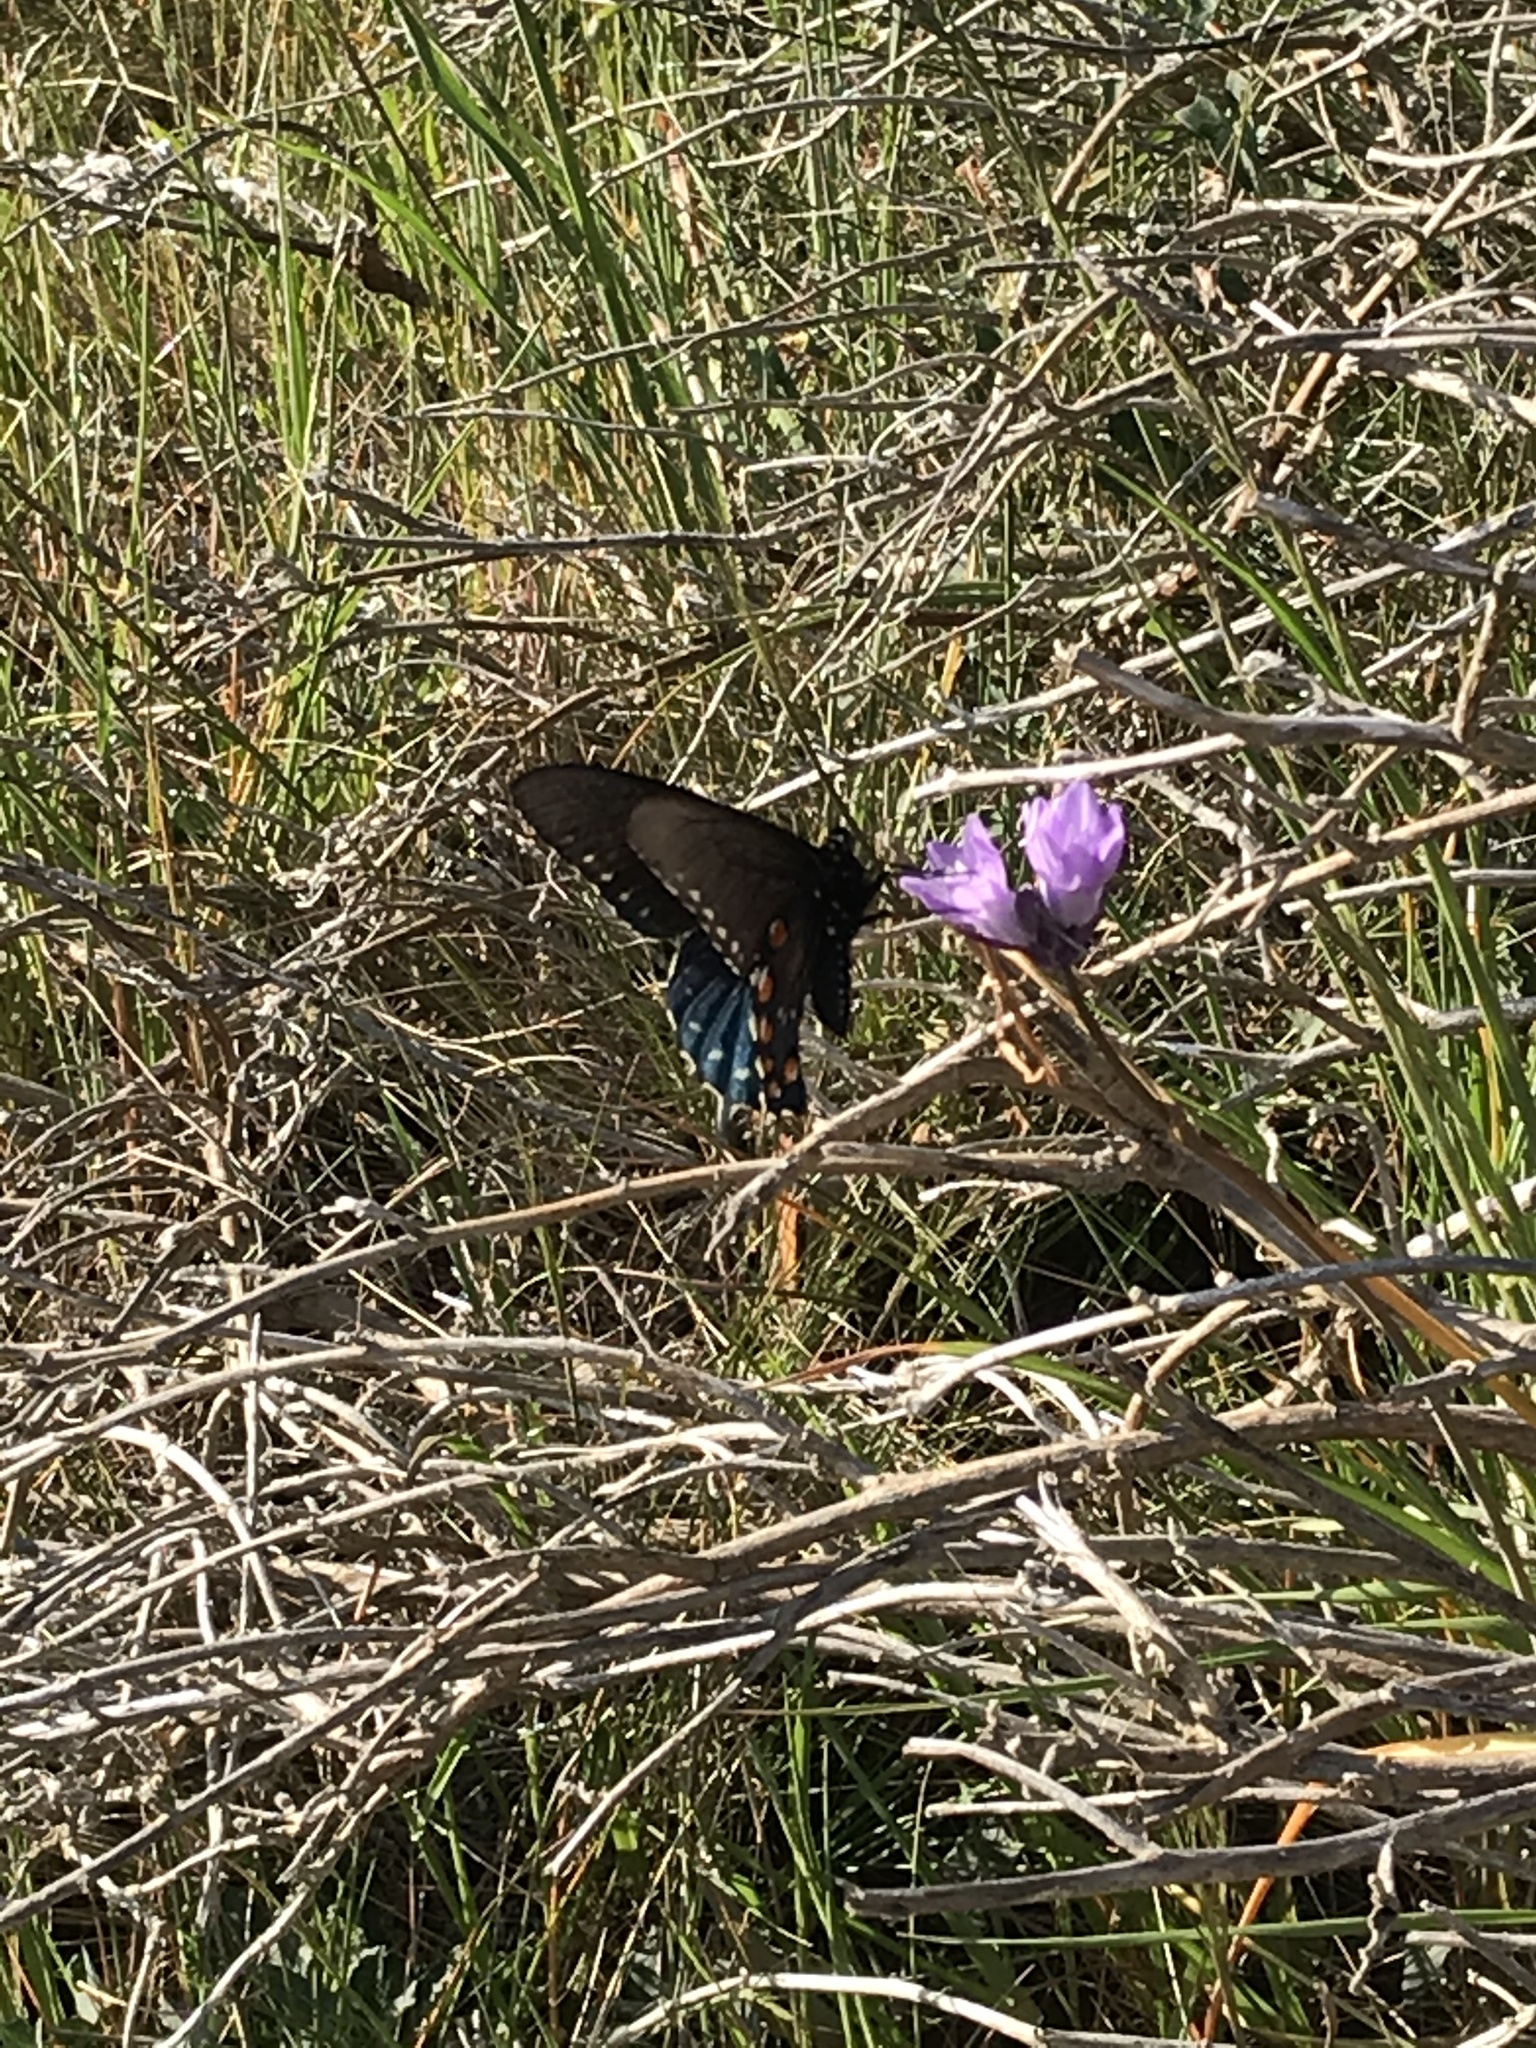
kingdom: Animalia
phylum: Arthropoda
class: Insecta
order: Lepidoptera
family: Papilionidae
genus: Battus
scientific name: Battus philenor
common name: Pipevine swallowtail
